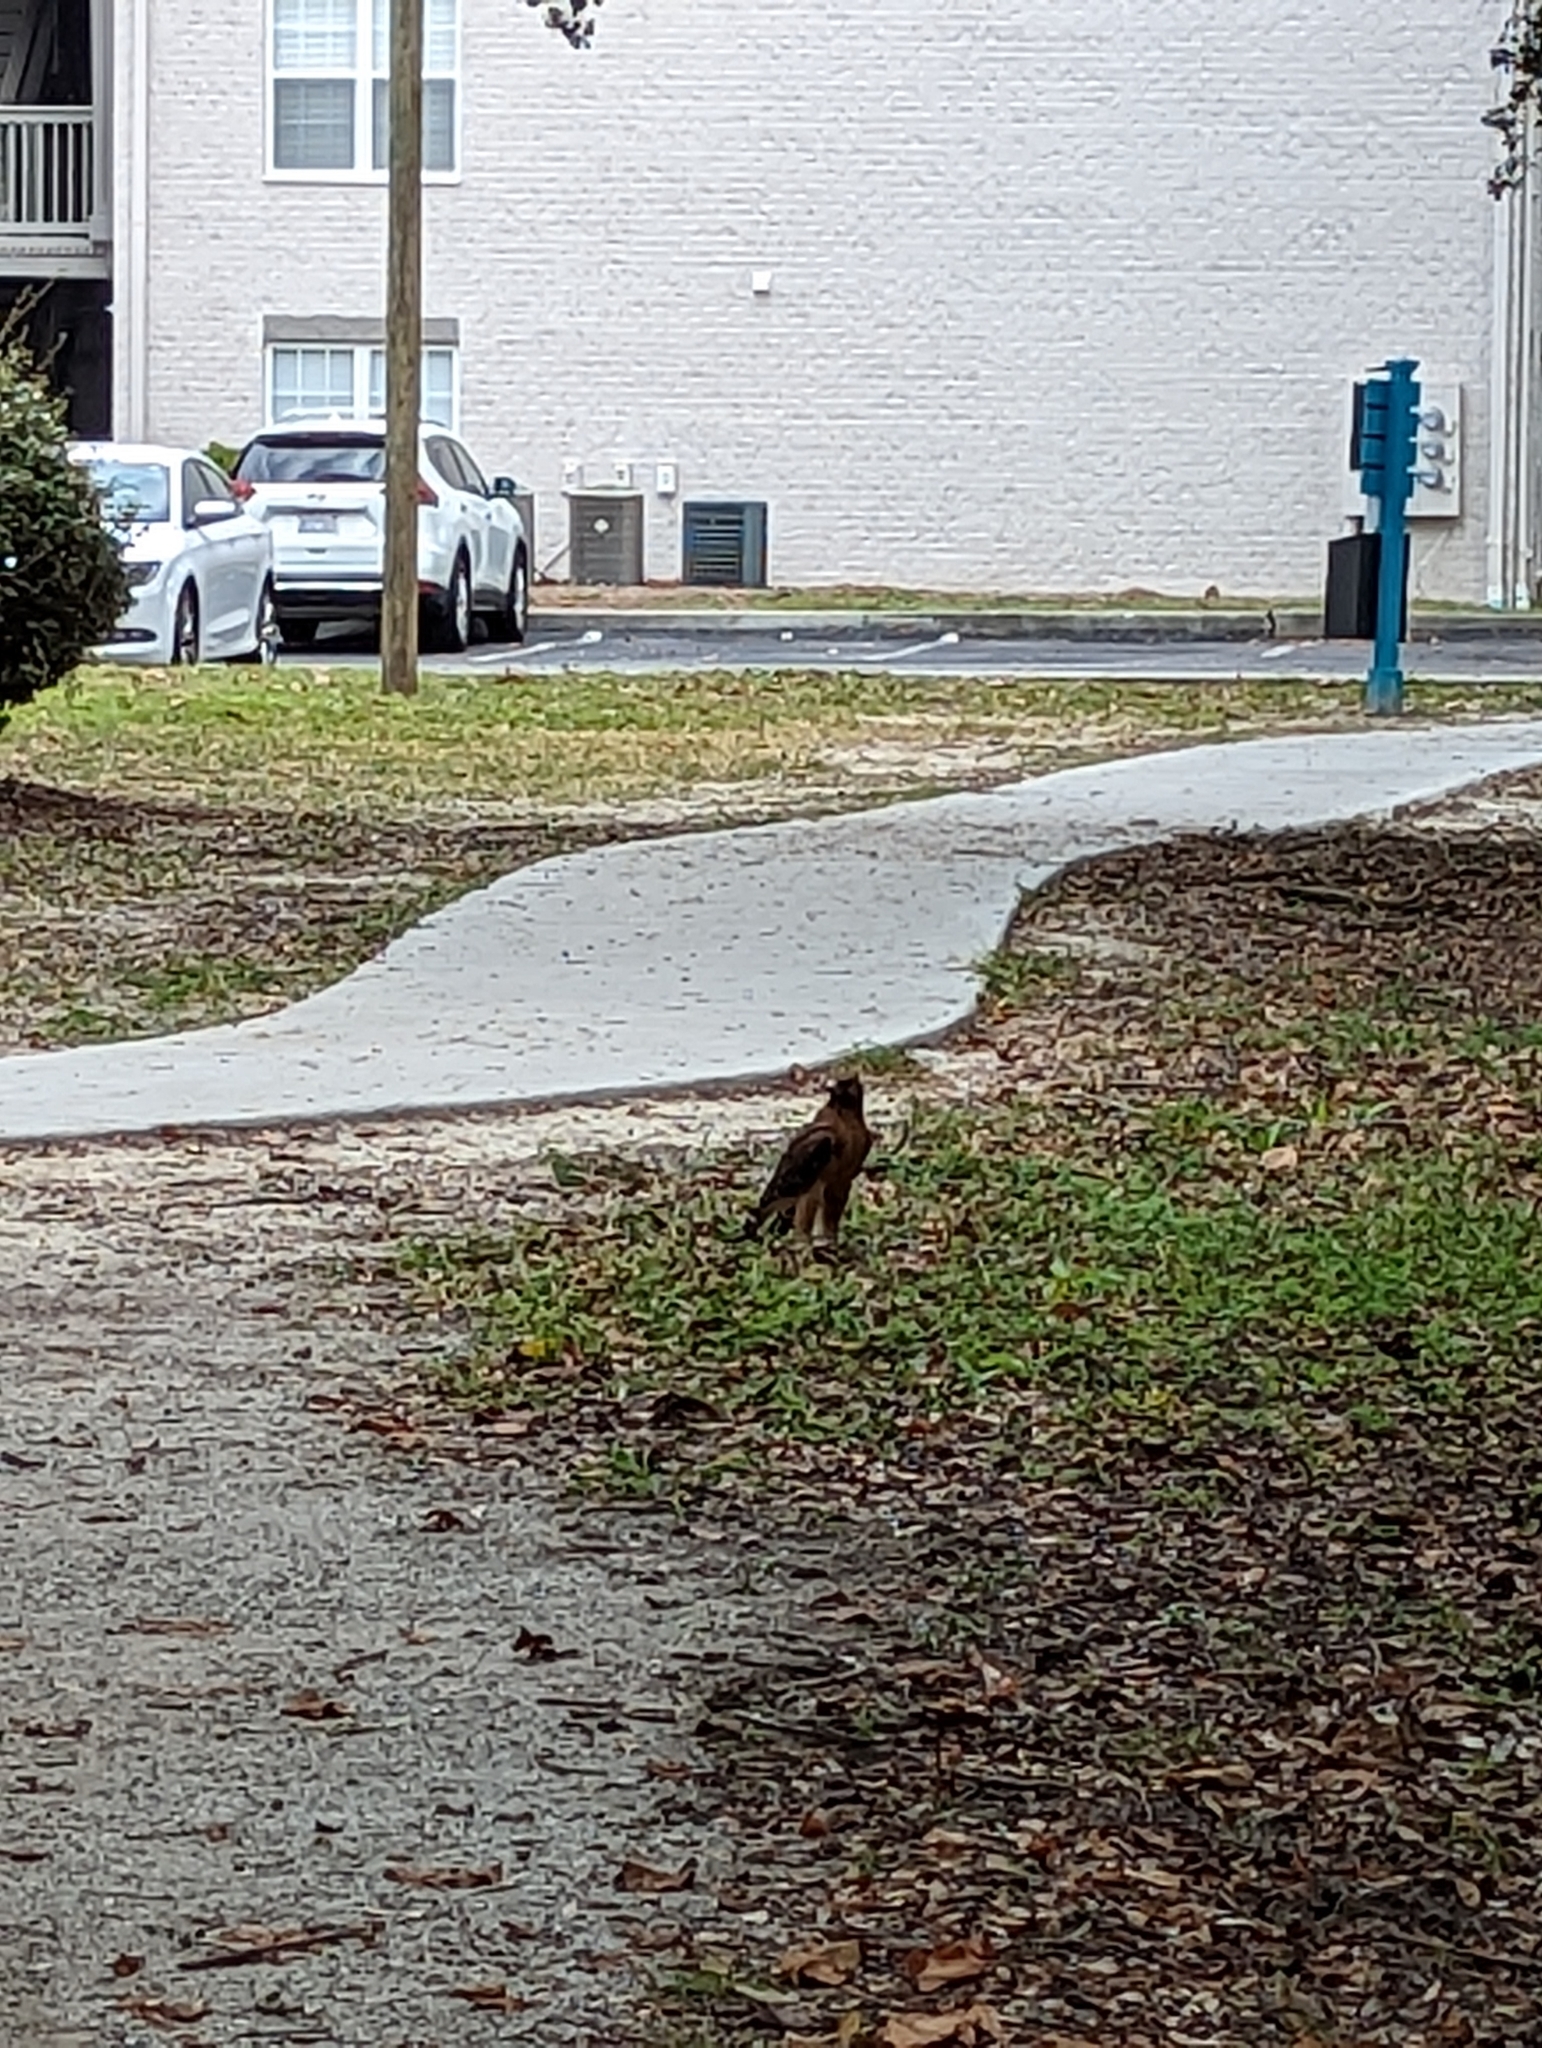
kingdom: Animalia
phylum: Chordata
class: Aves
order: Accipitriformes
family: Accipitridae
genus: Buteo
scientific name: Buteo lineatus
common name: Red-shouldered hawk
